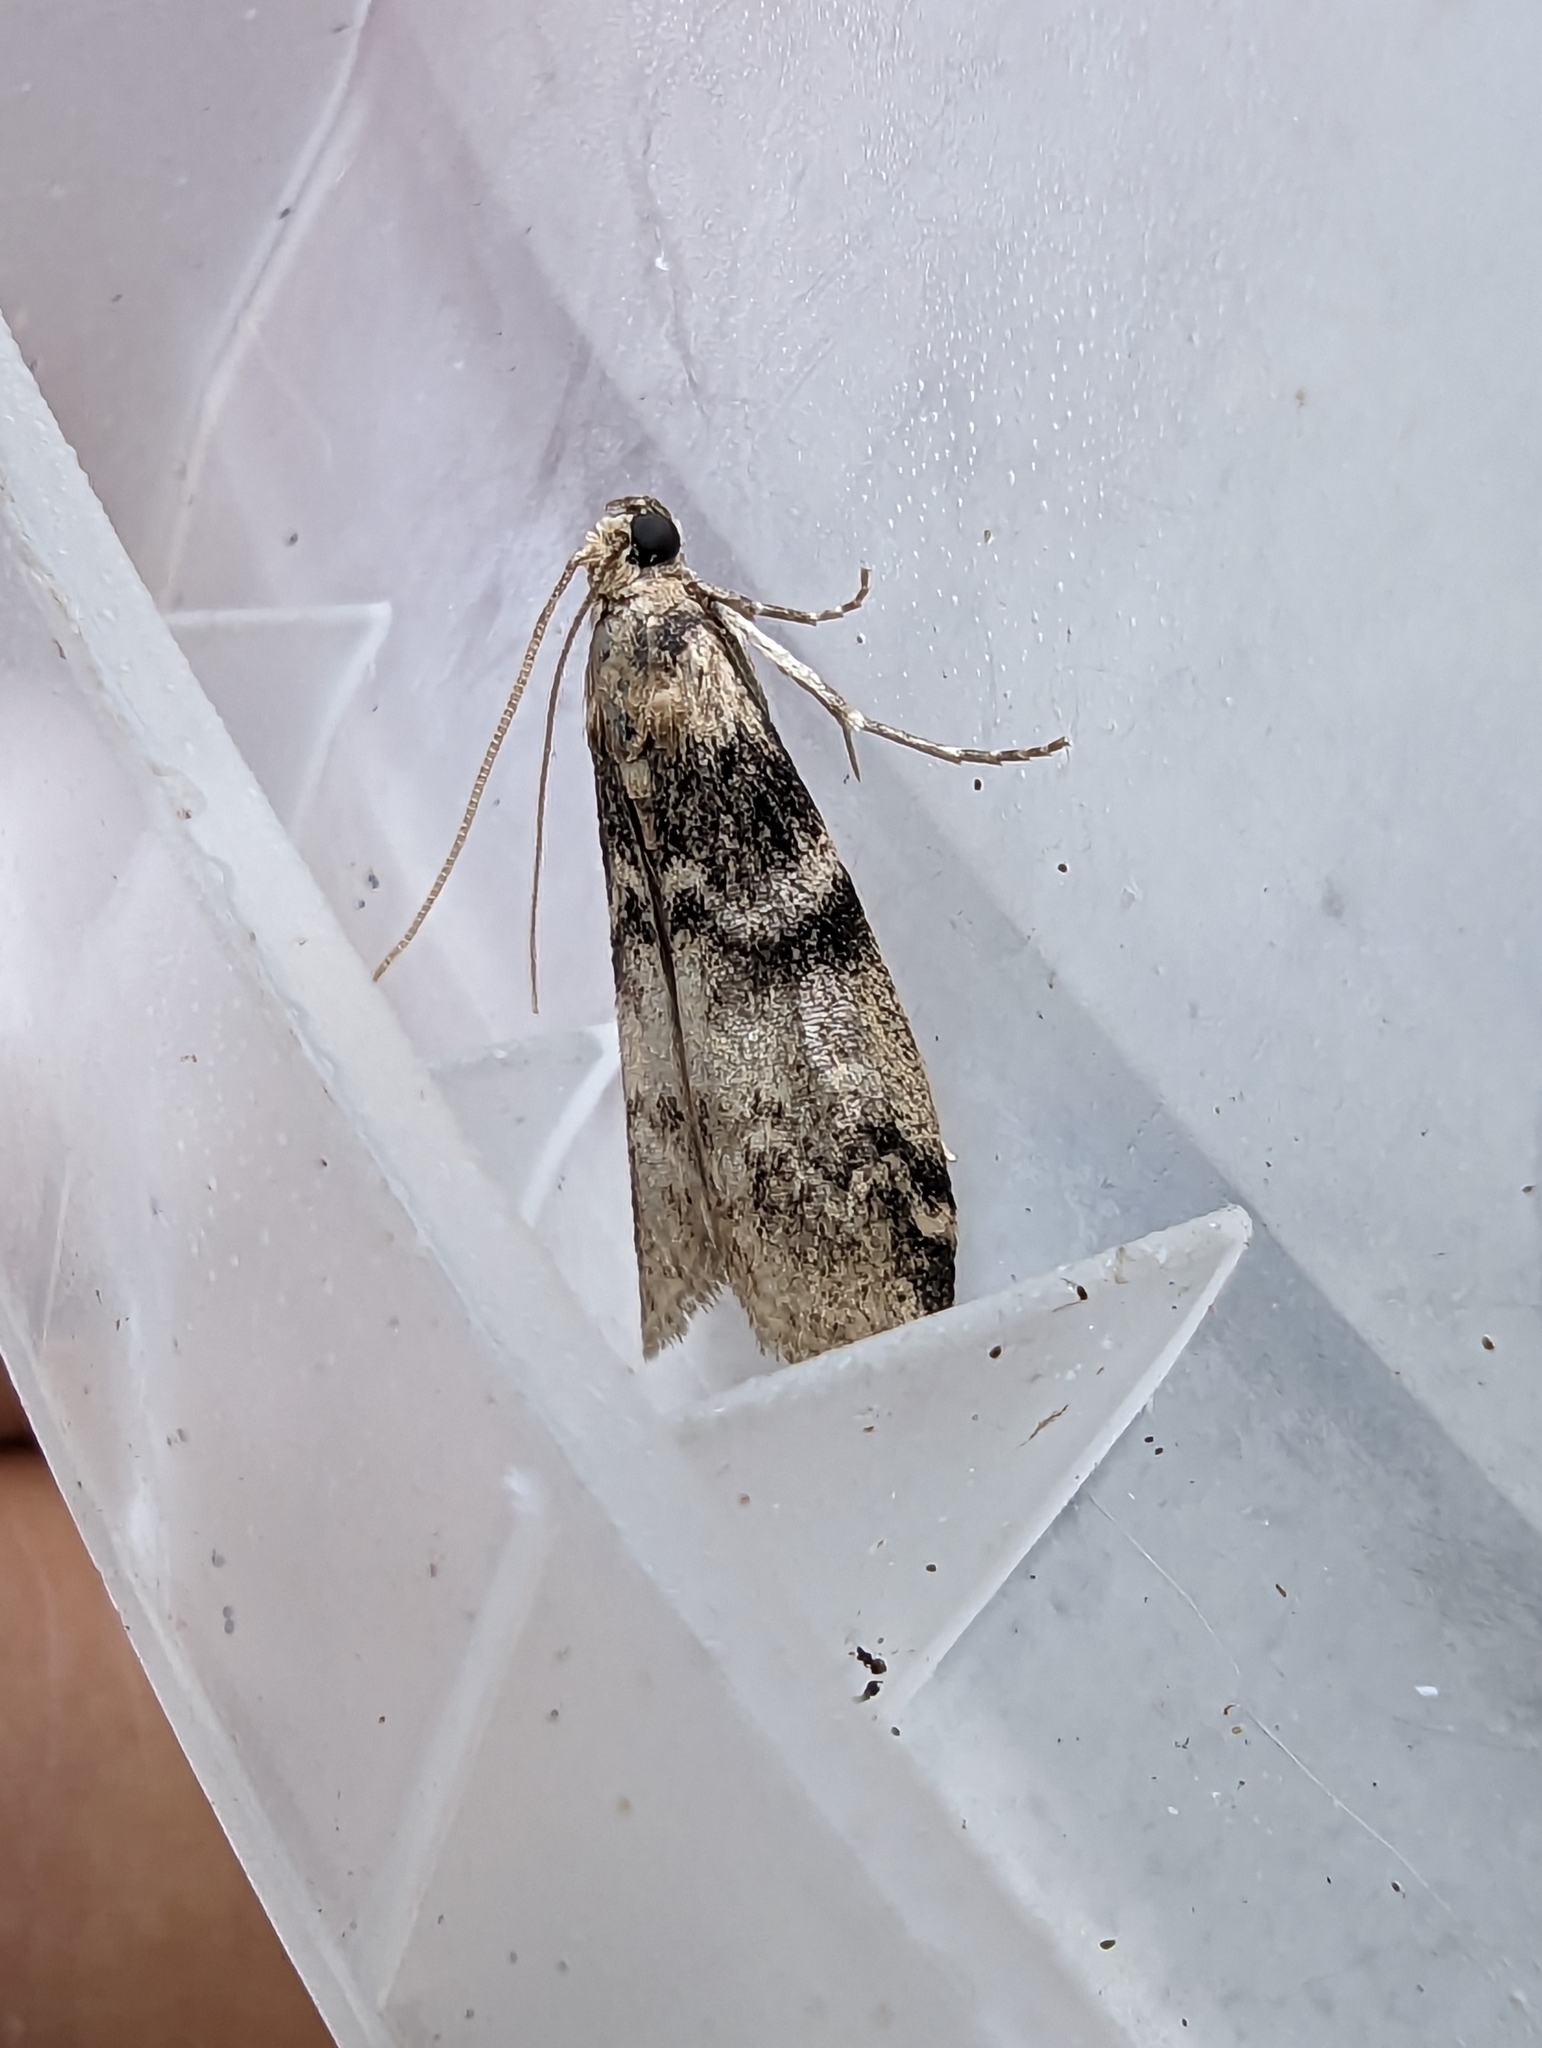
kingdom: Animalia
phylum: Arthropoda
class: Insecta
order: Lepidoptera
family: Pyralidae
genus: Euzophera
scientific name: Euzophera pinguis
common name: Ash-bark knot-horn
